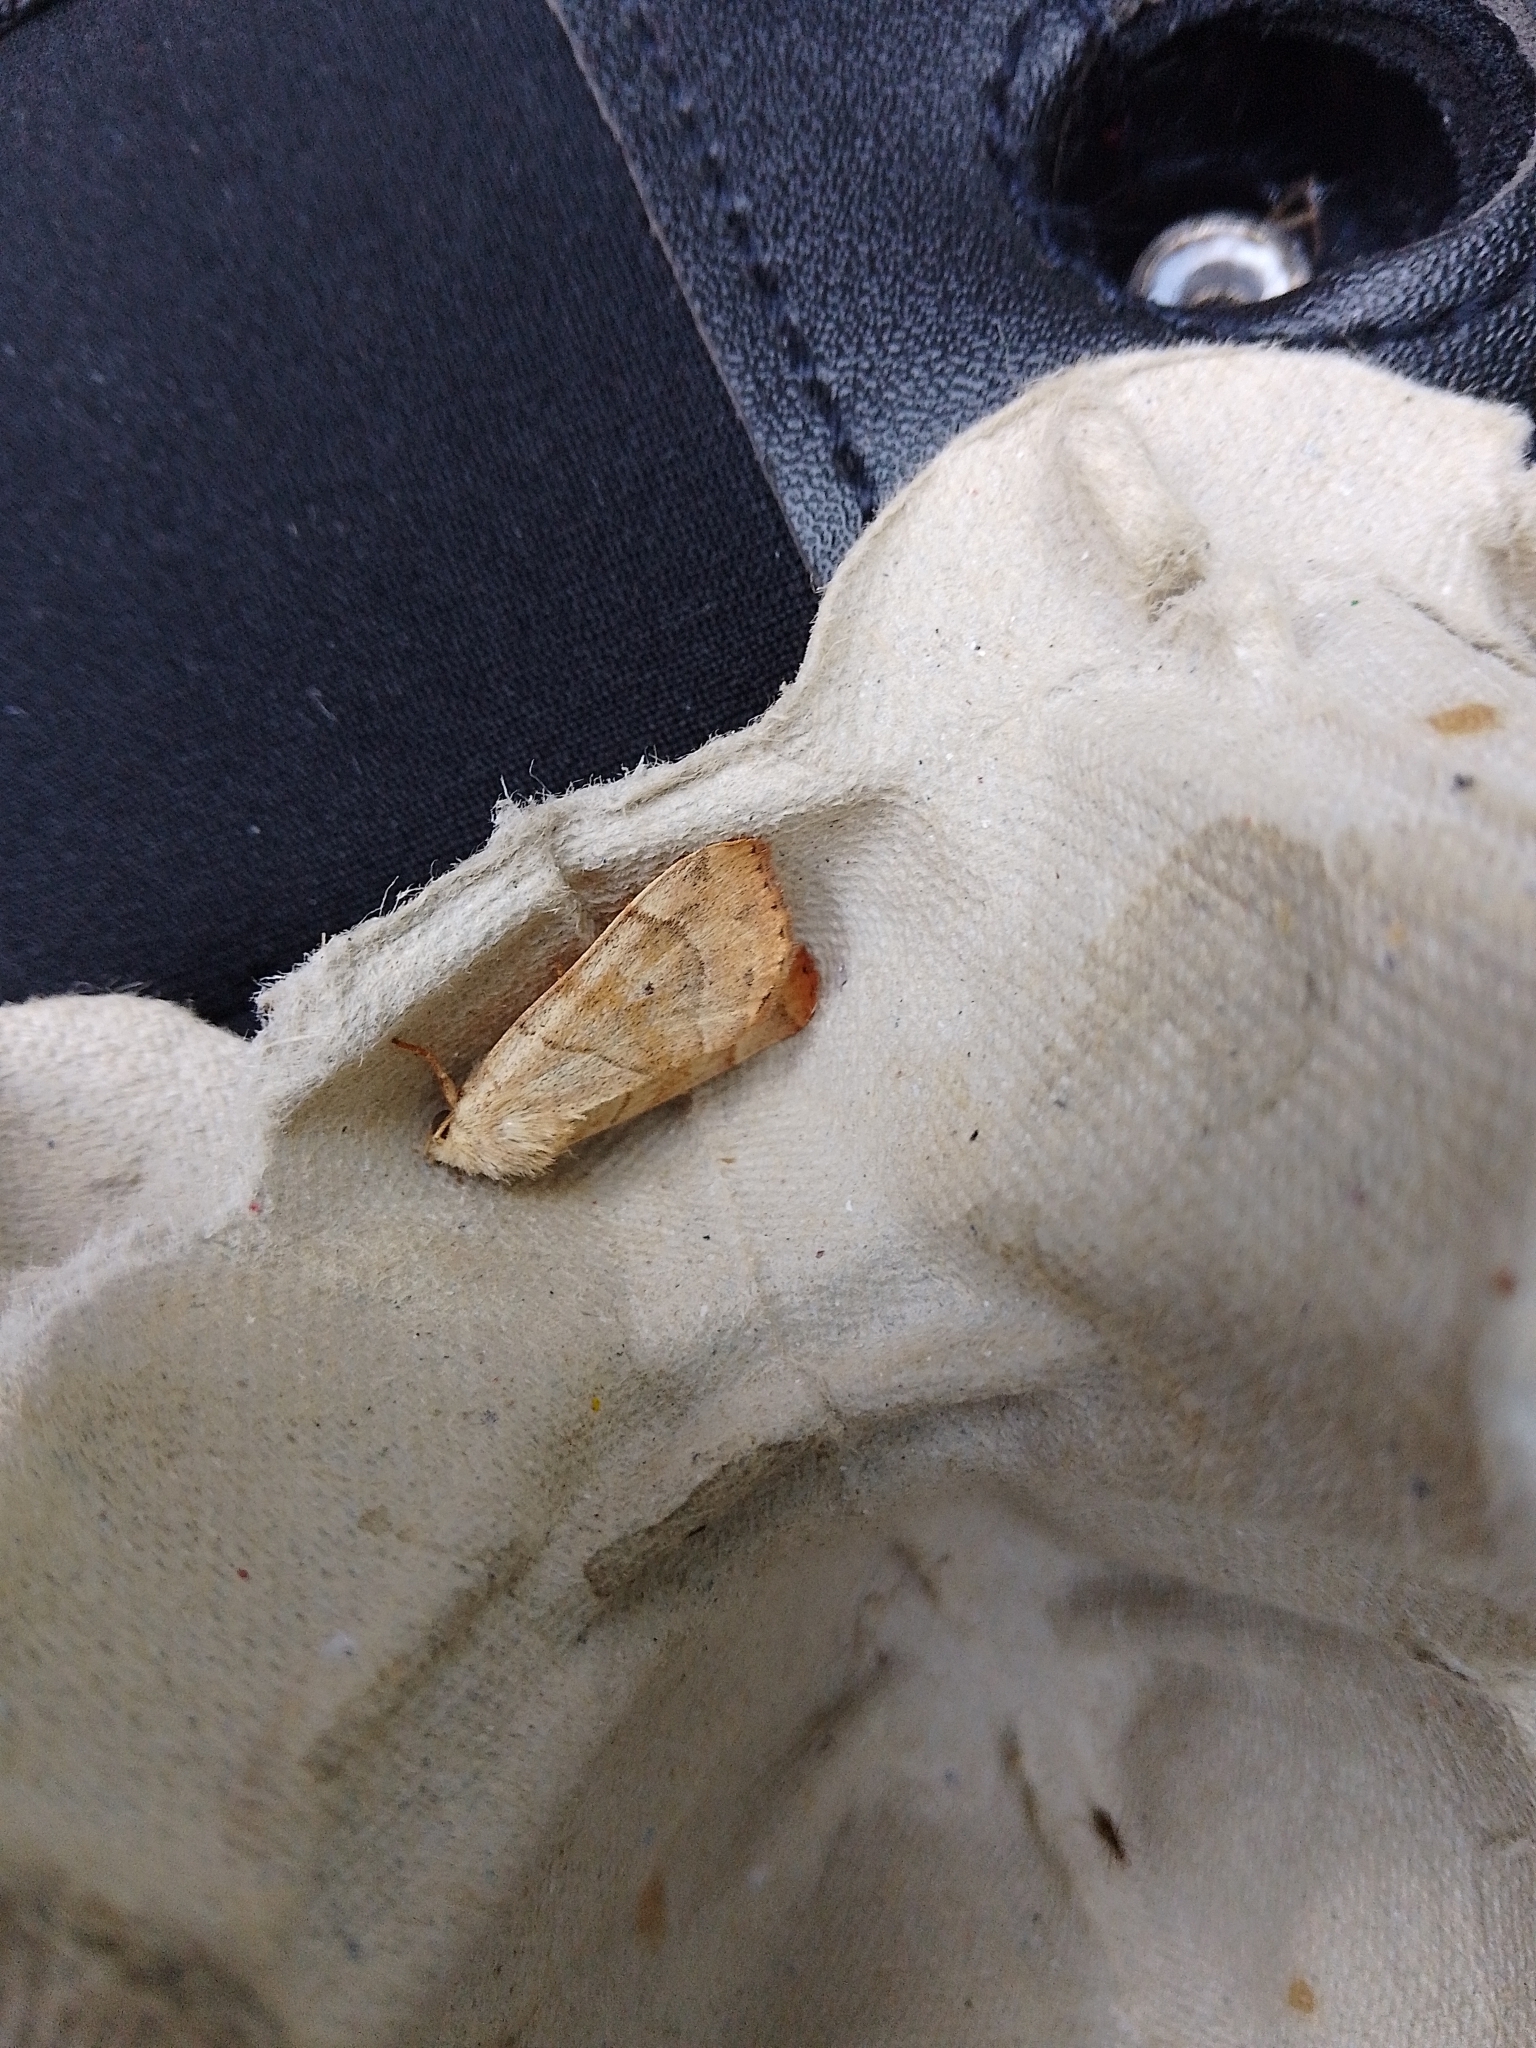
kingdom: Animalia
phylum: Arthropoda
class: Insecta
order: Lepidoptera
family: Noctuidae
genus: Cosmia
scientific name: Cosmia trapezina
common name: Dun-bar
